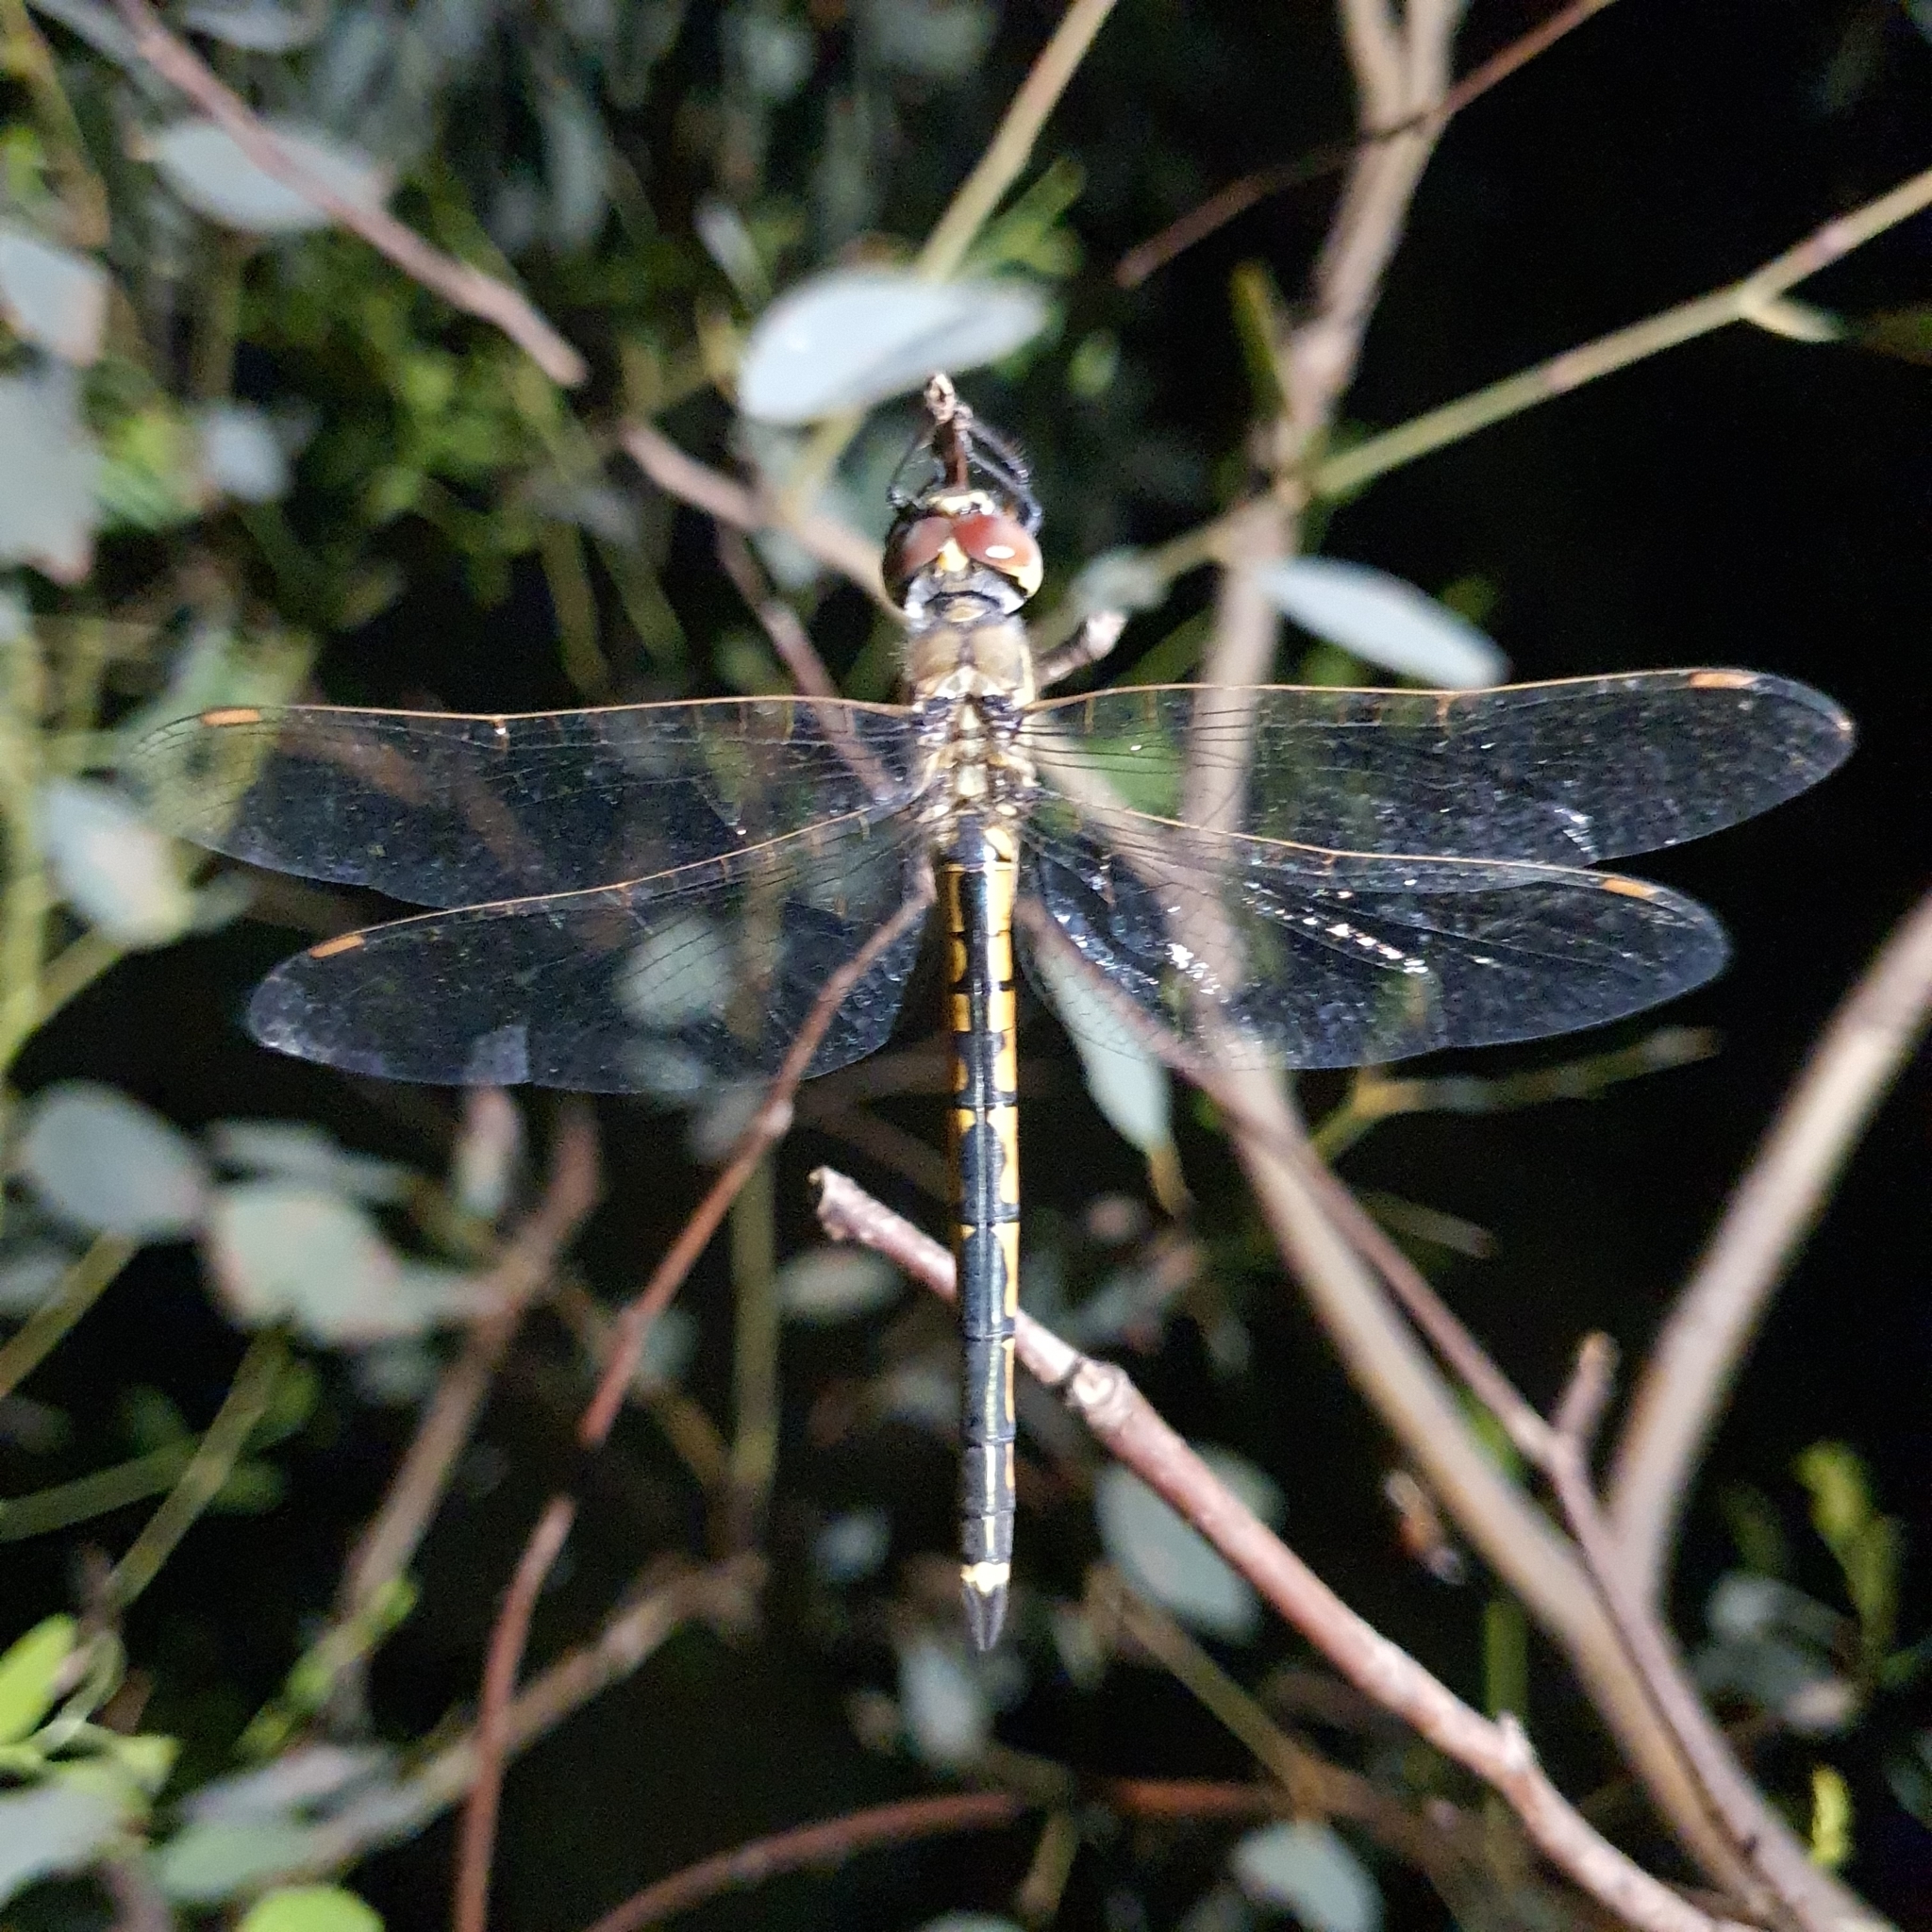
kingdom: Animalia
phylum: Arthropoda
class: Insecta
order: Odonata
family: Corduliidae
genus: Hemicordulia
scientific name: Hemicordulia tau
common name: Tau emerald
